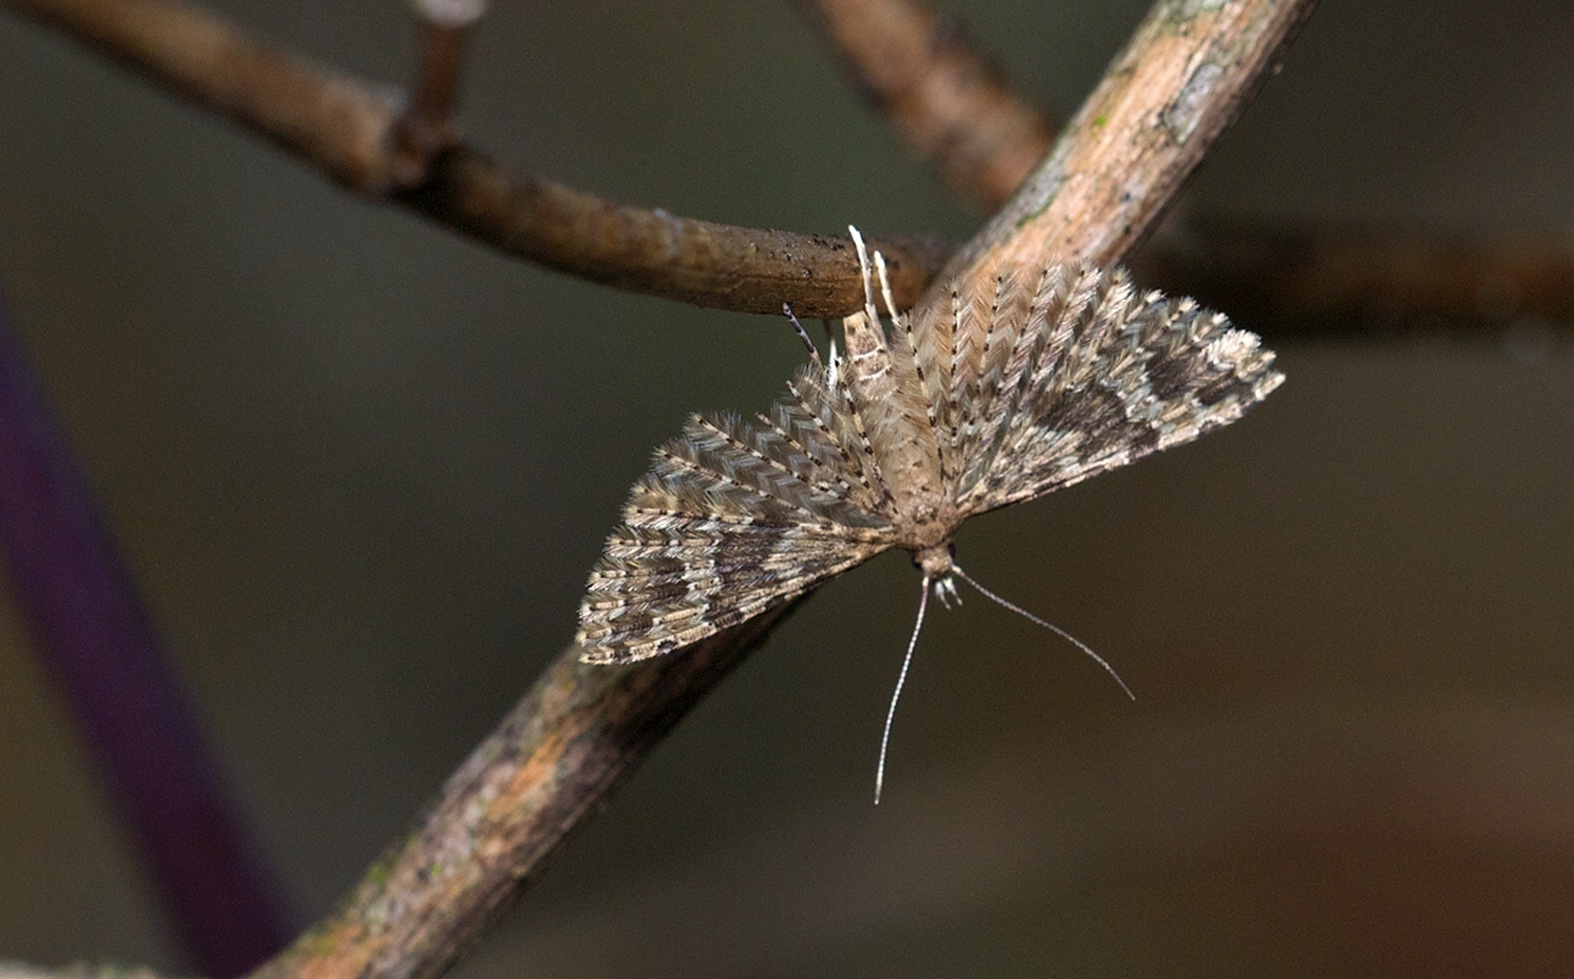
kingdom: Animalia
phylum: Arthropoda
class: Insecta
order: Lepidoptera
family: Alucitidae
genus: Alucita
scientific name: Alucita hexadactyla
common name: Twenty-plume moth
